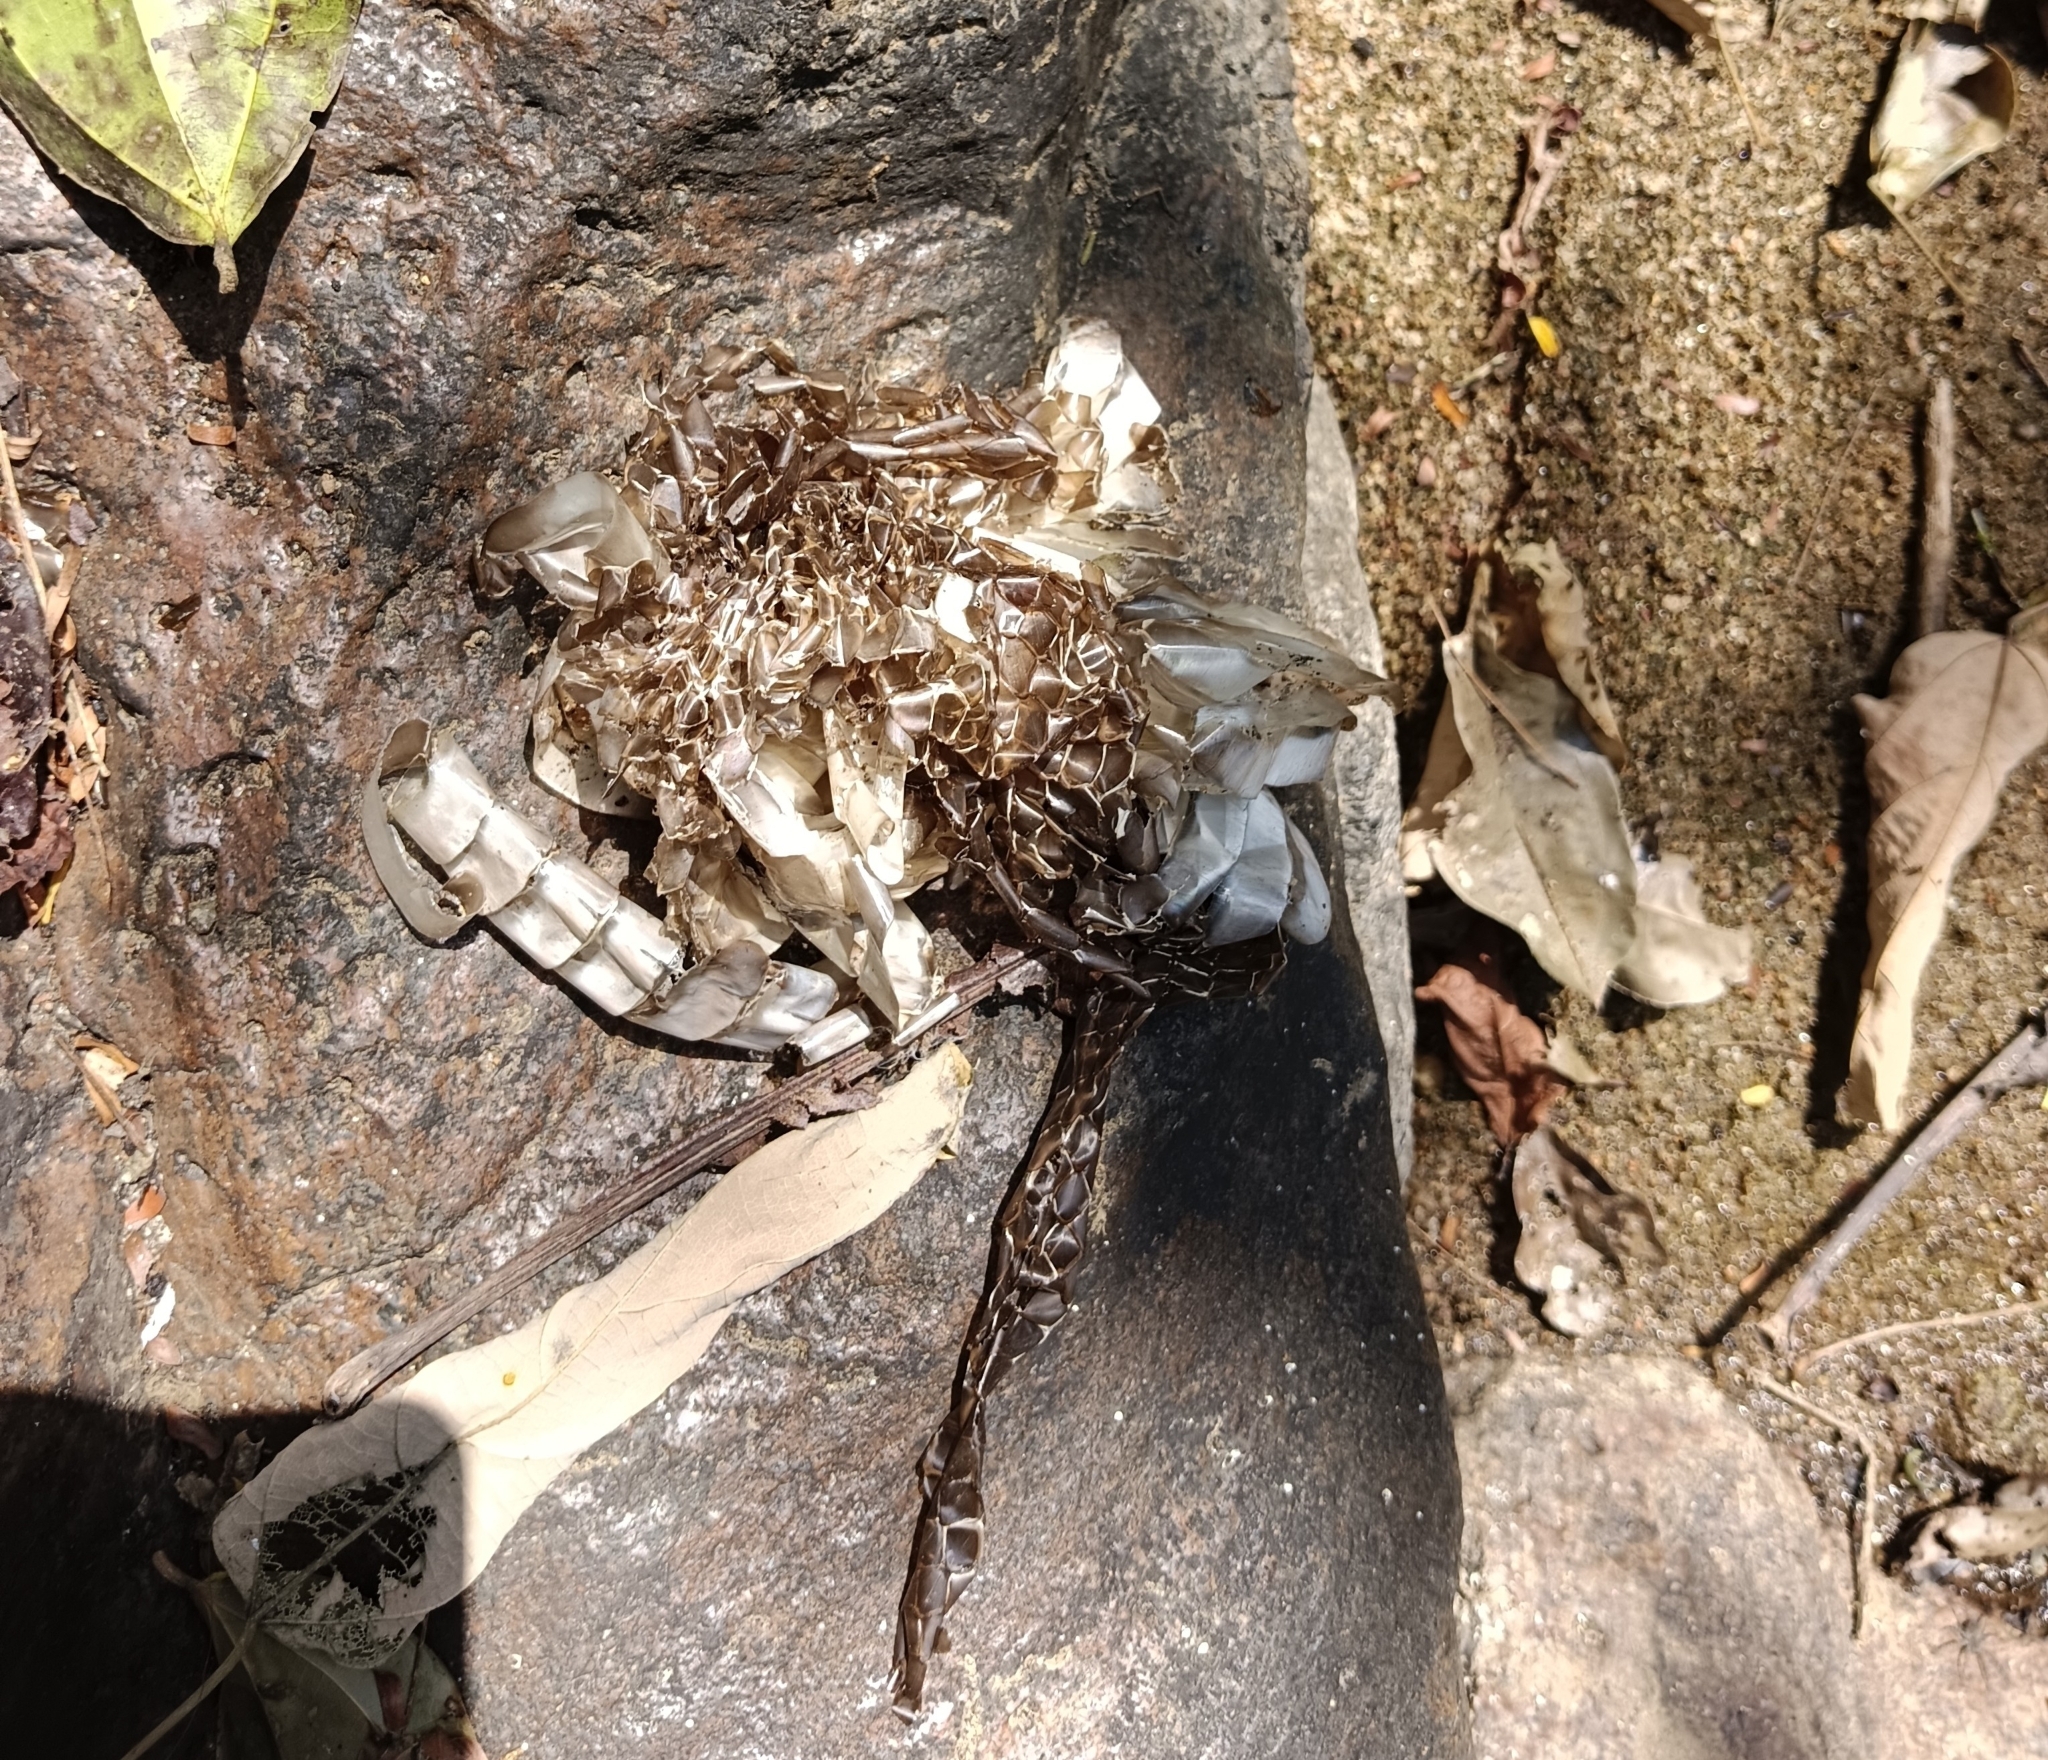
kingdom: Animalia
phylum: Chordata
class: Squamata
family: Colubridae
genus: Ptyas
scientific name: Ptyas mucosa
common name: Oriental ratsnake
